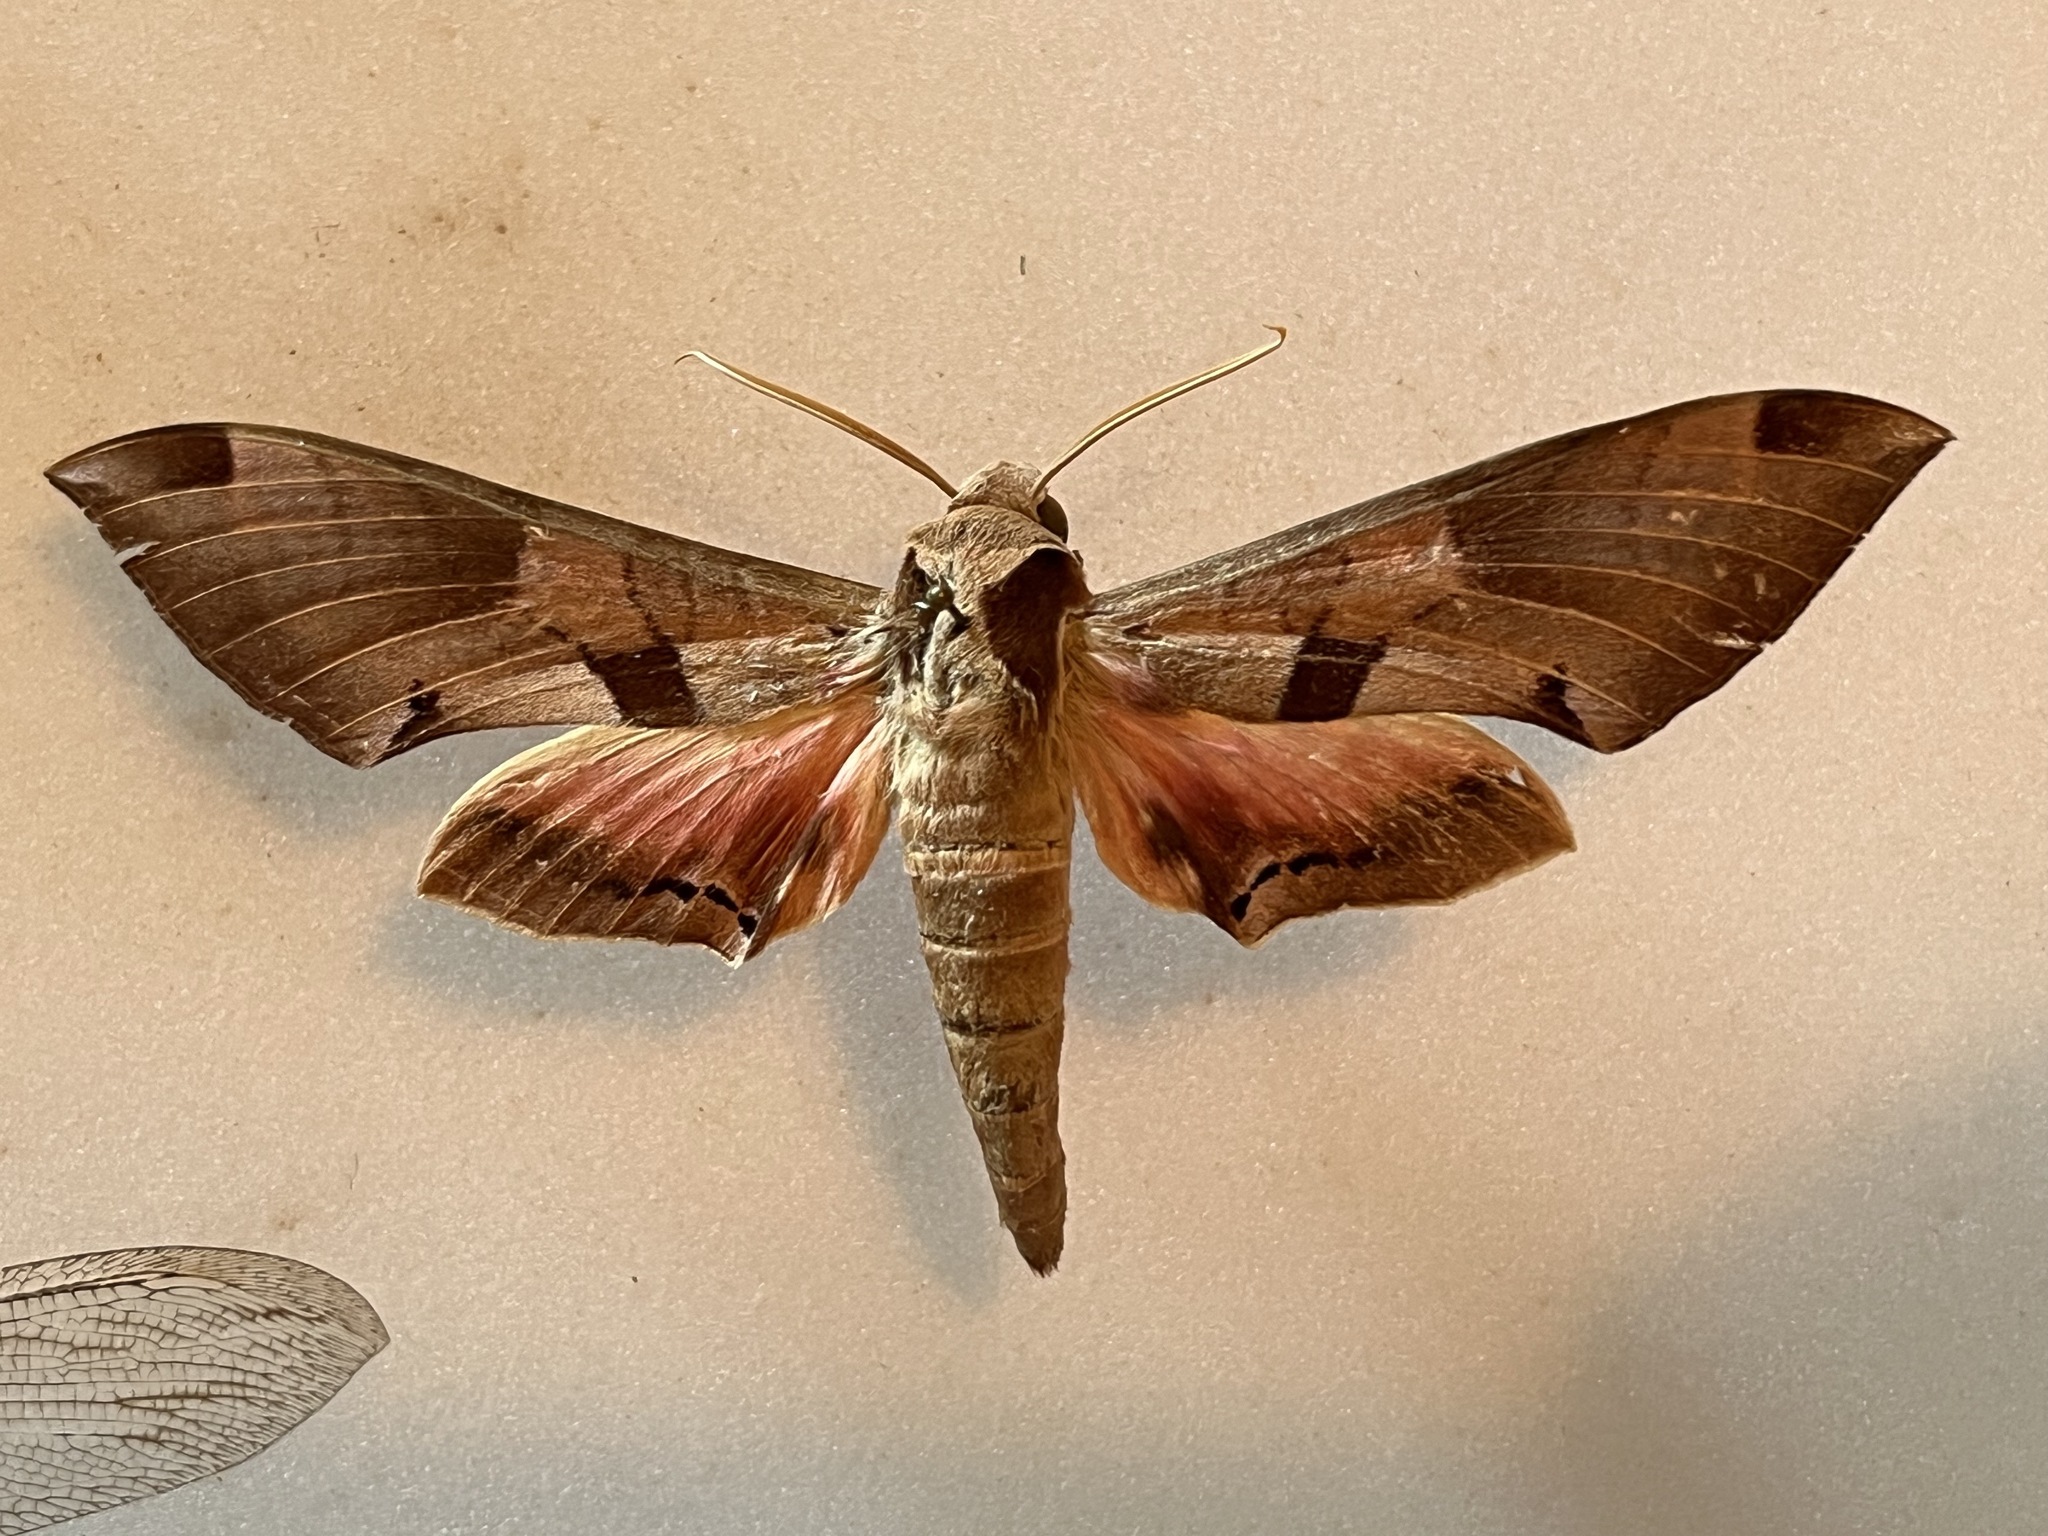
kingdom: Animalia
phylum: Arthropoda
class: Insecta
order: Lepidoptera
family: Sphingidae
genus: Eumorpha
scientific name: Eumorpha achemon
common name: Achemon sphinx
